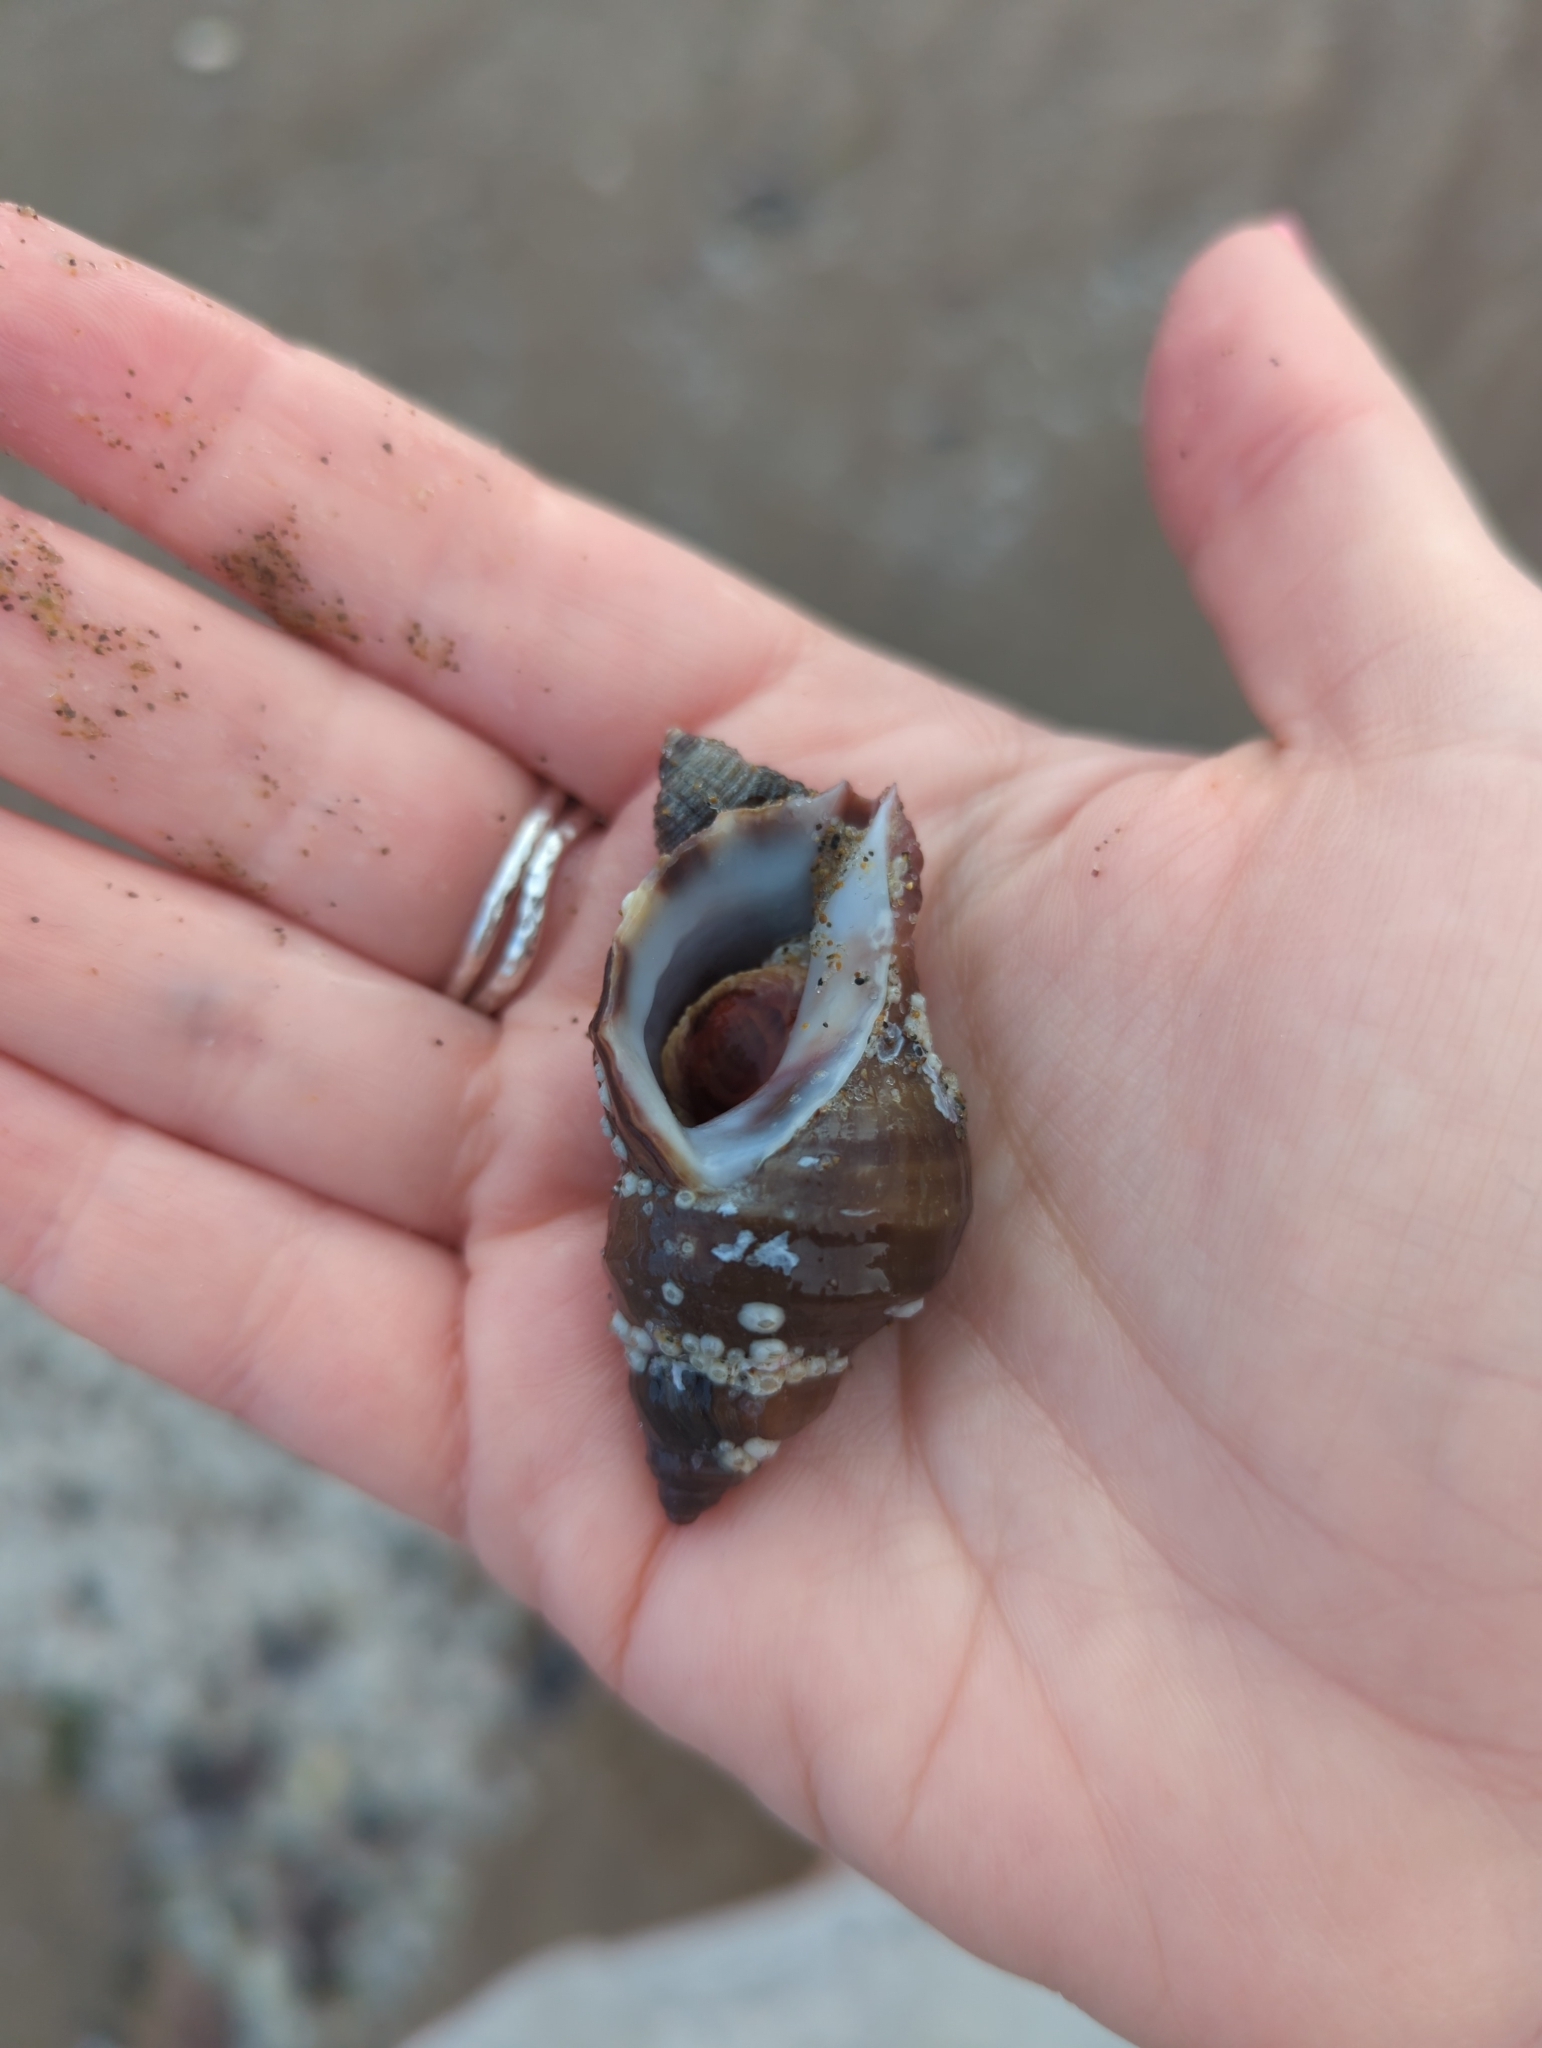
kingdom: Animalia
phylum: Mollusca
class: Gastropoda
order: Neogastropoda
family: Muricidae
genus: Nucella
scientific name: Nucella lamellosa
